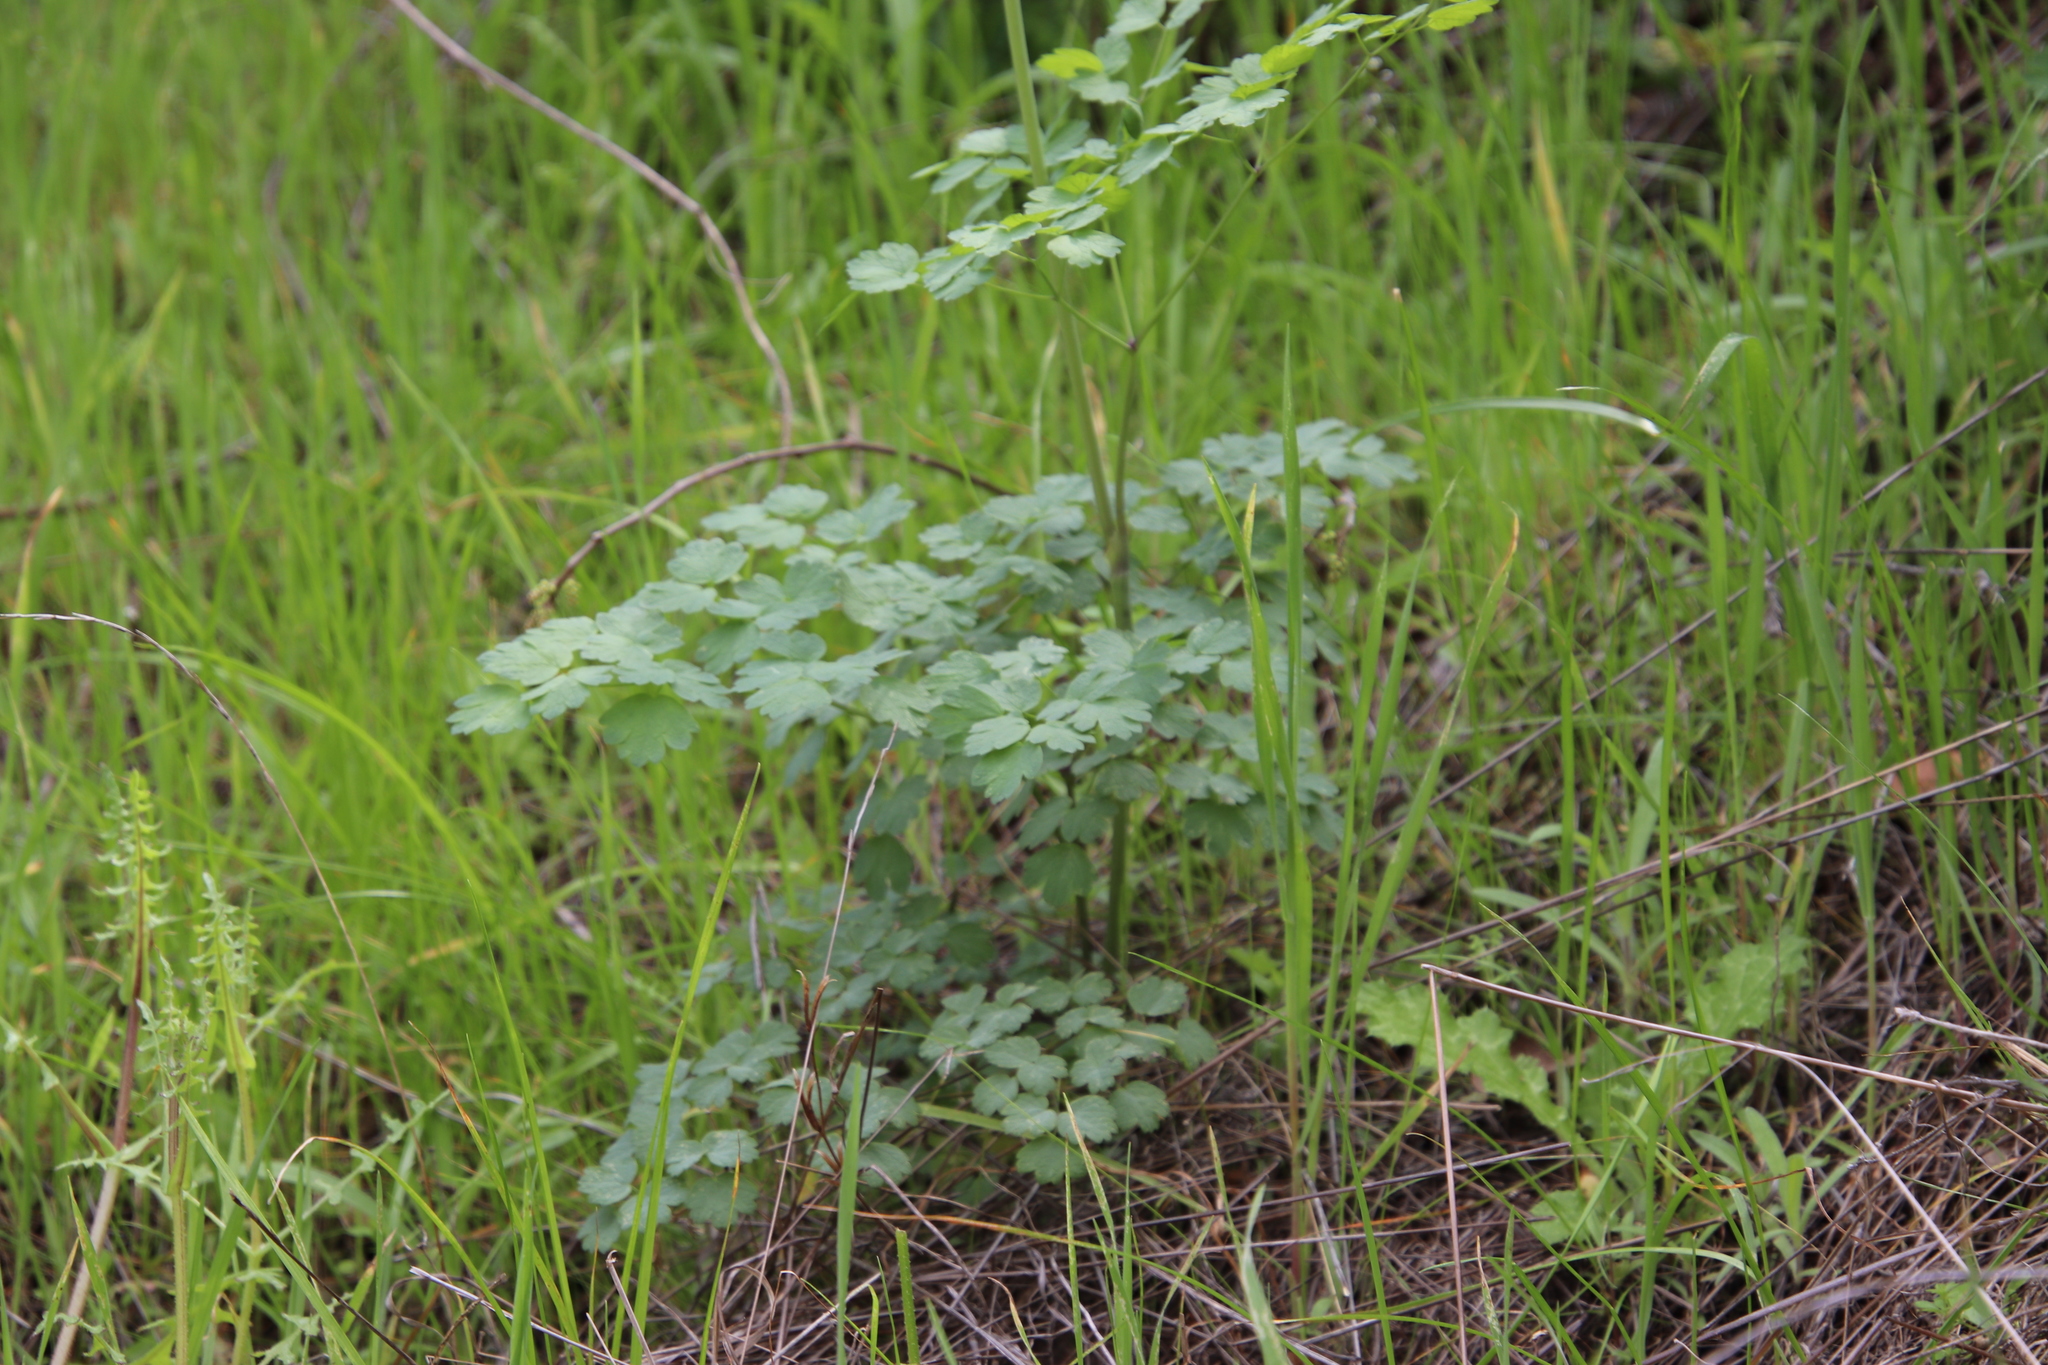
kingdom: Plantae
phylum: Tracheophyta
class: Magnoliopsida
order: Ranunculales
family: Ranunculaceae
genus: Thalictrum
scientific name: Thalictrum fendleri
